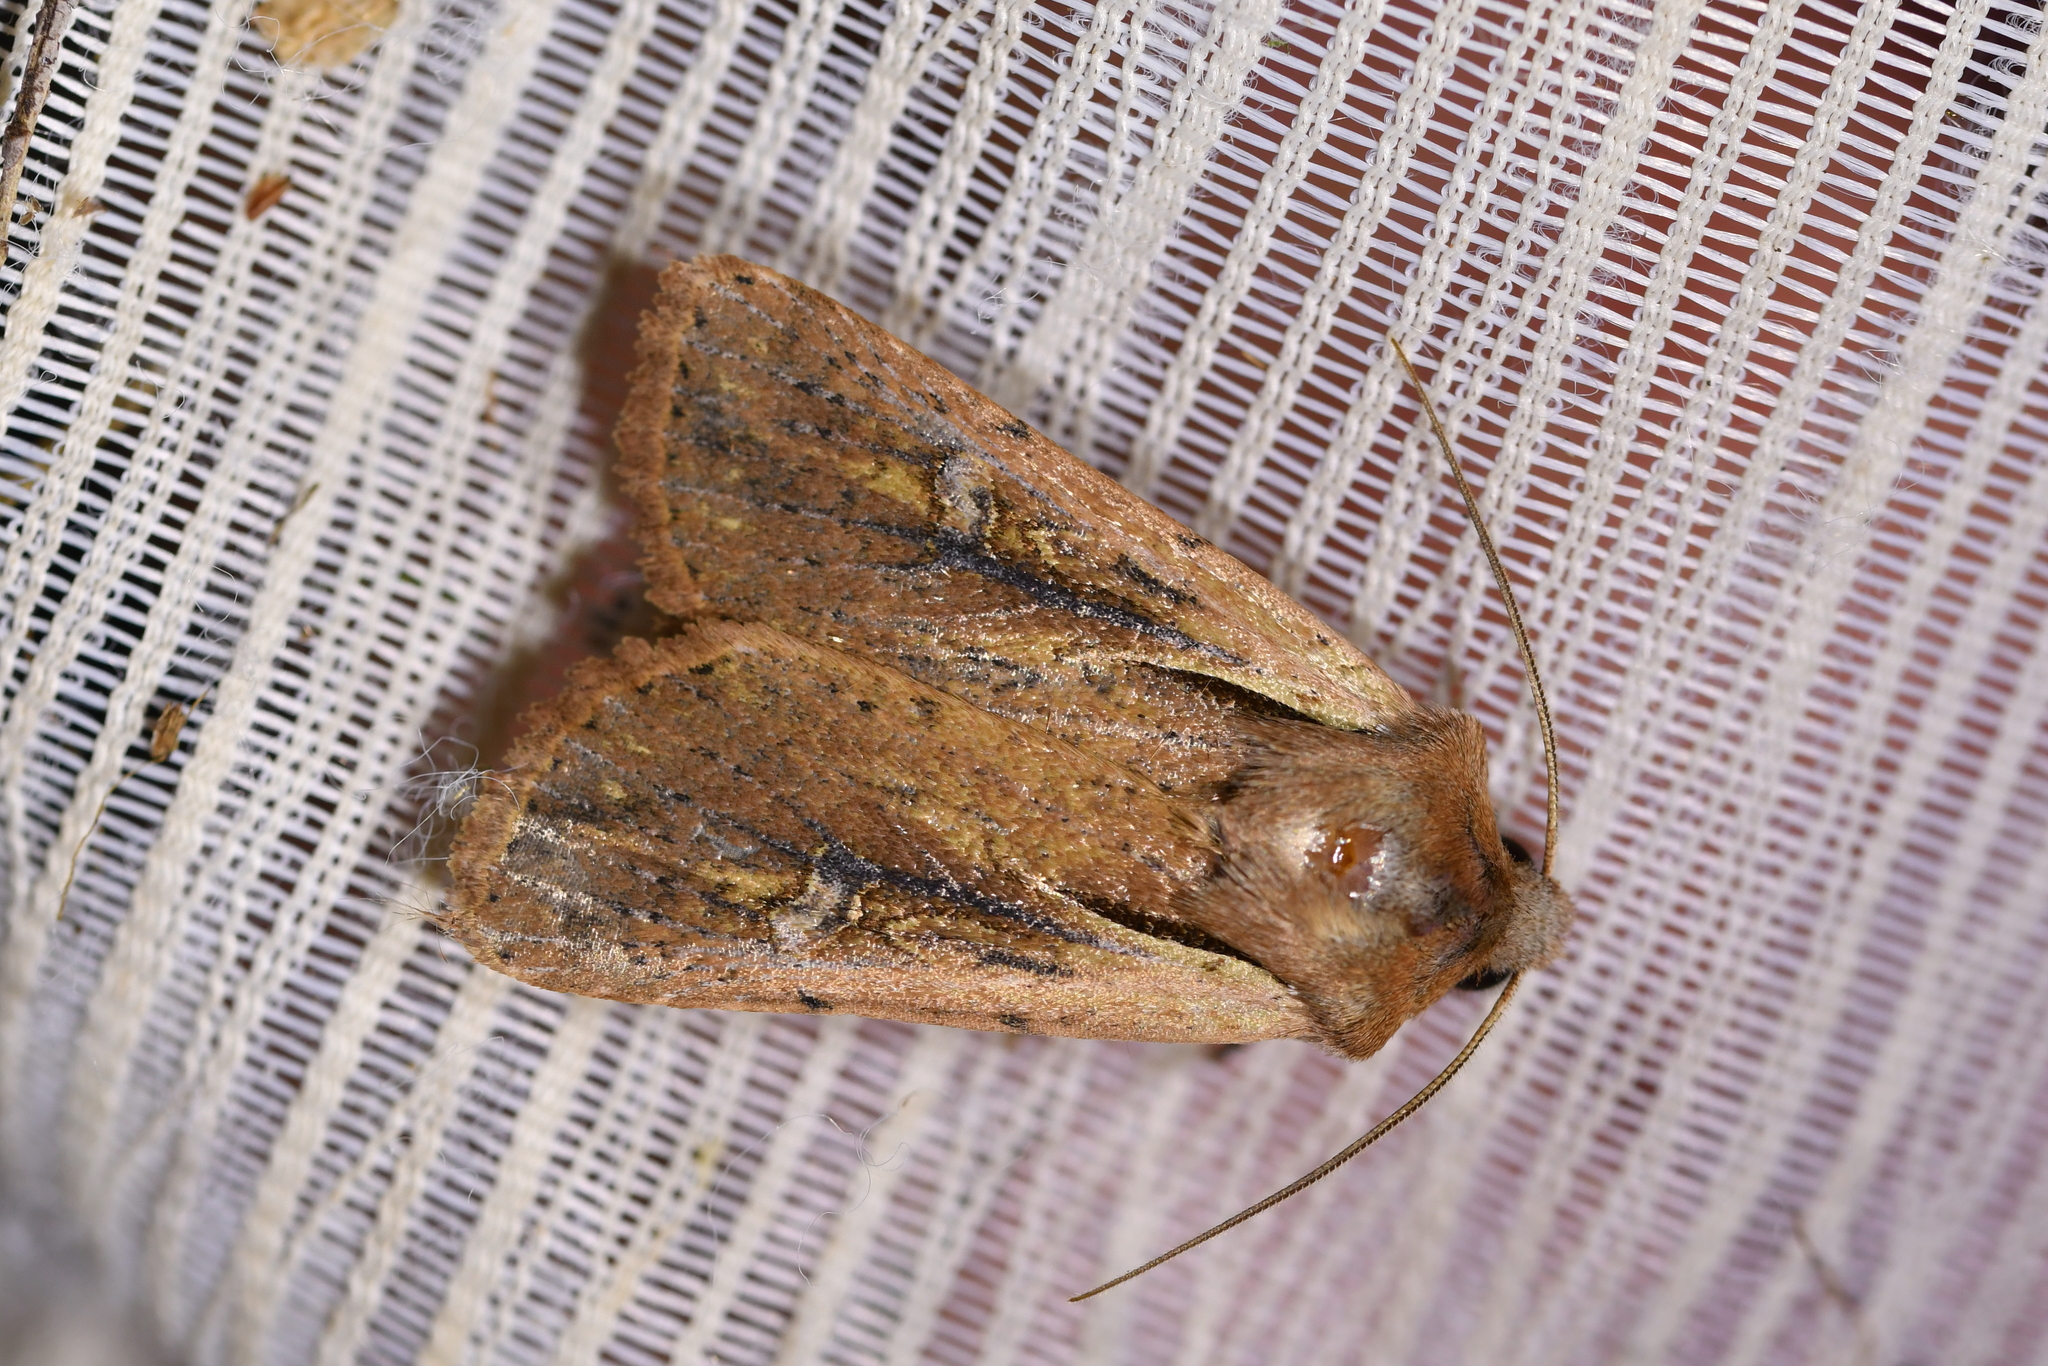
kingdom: Animalia
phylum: Arthropoda
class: Insecta
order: Lepidoptera
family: Noctuidae
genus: Ichneutica
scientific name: Ichneutica atristriga
